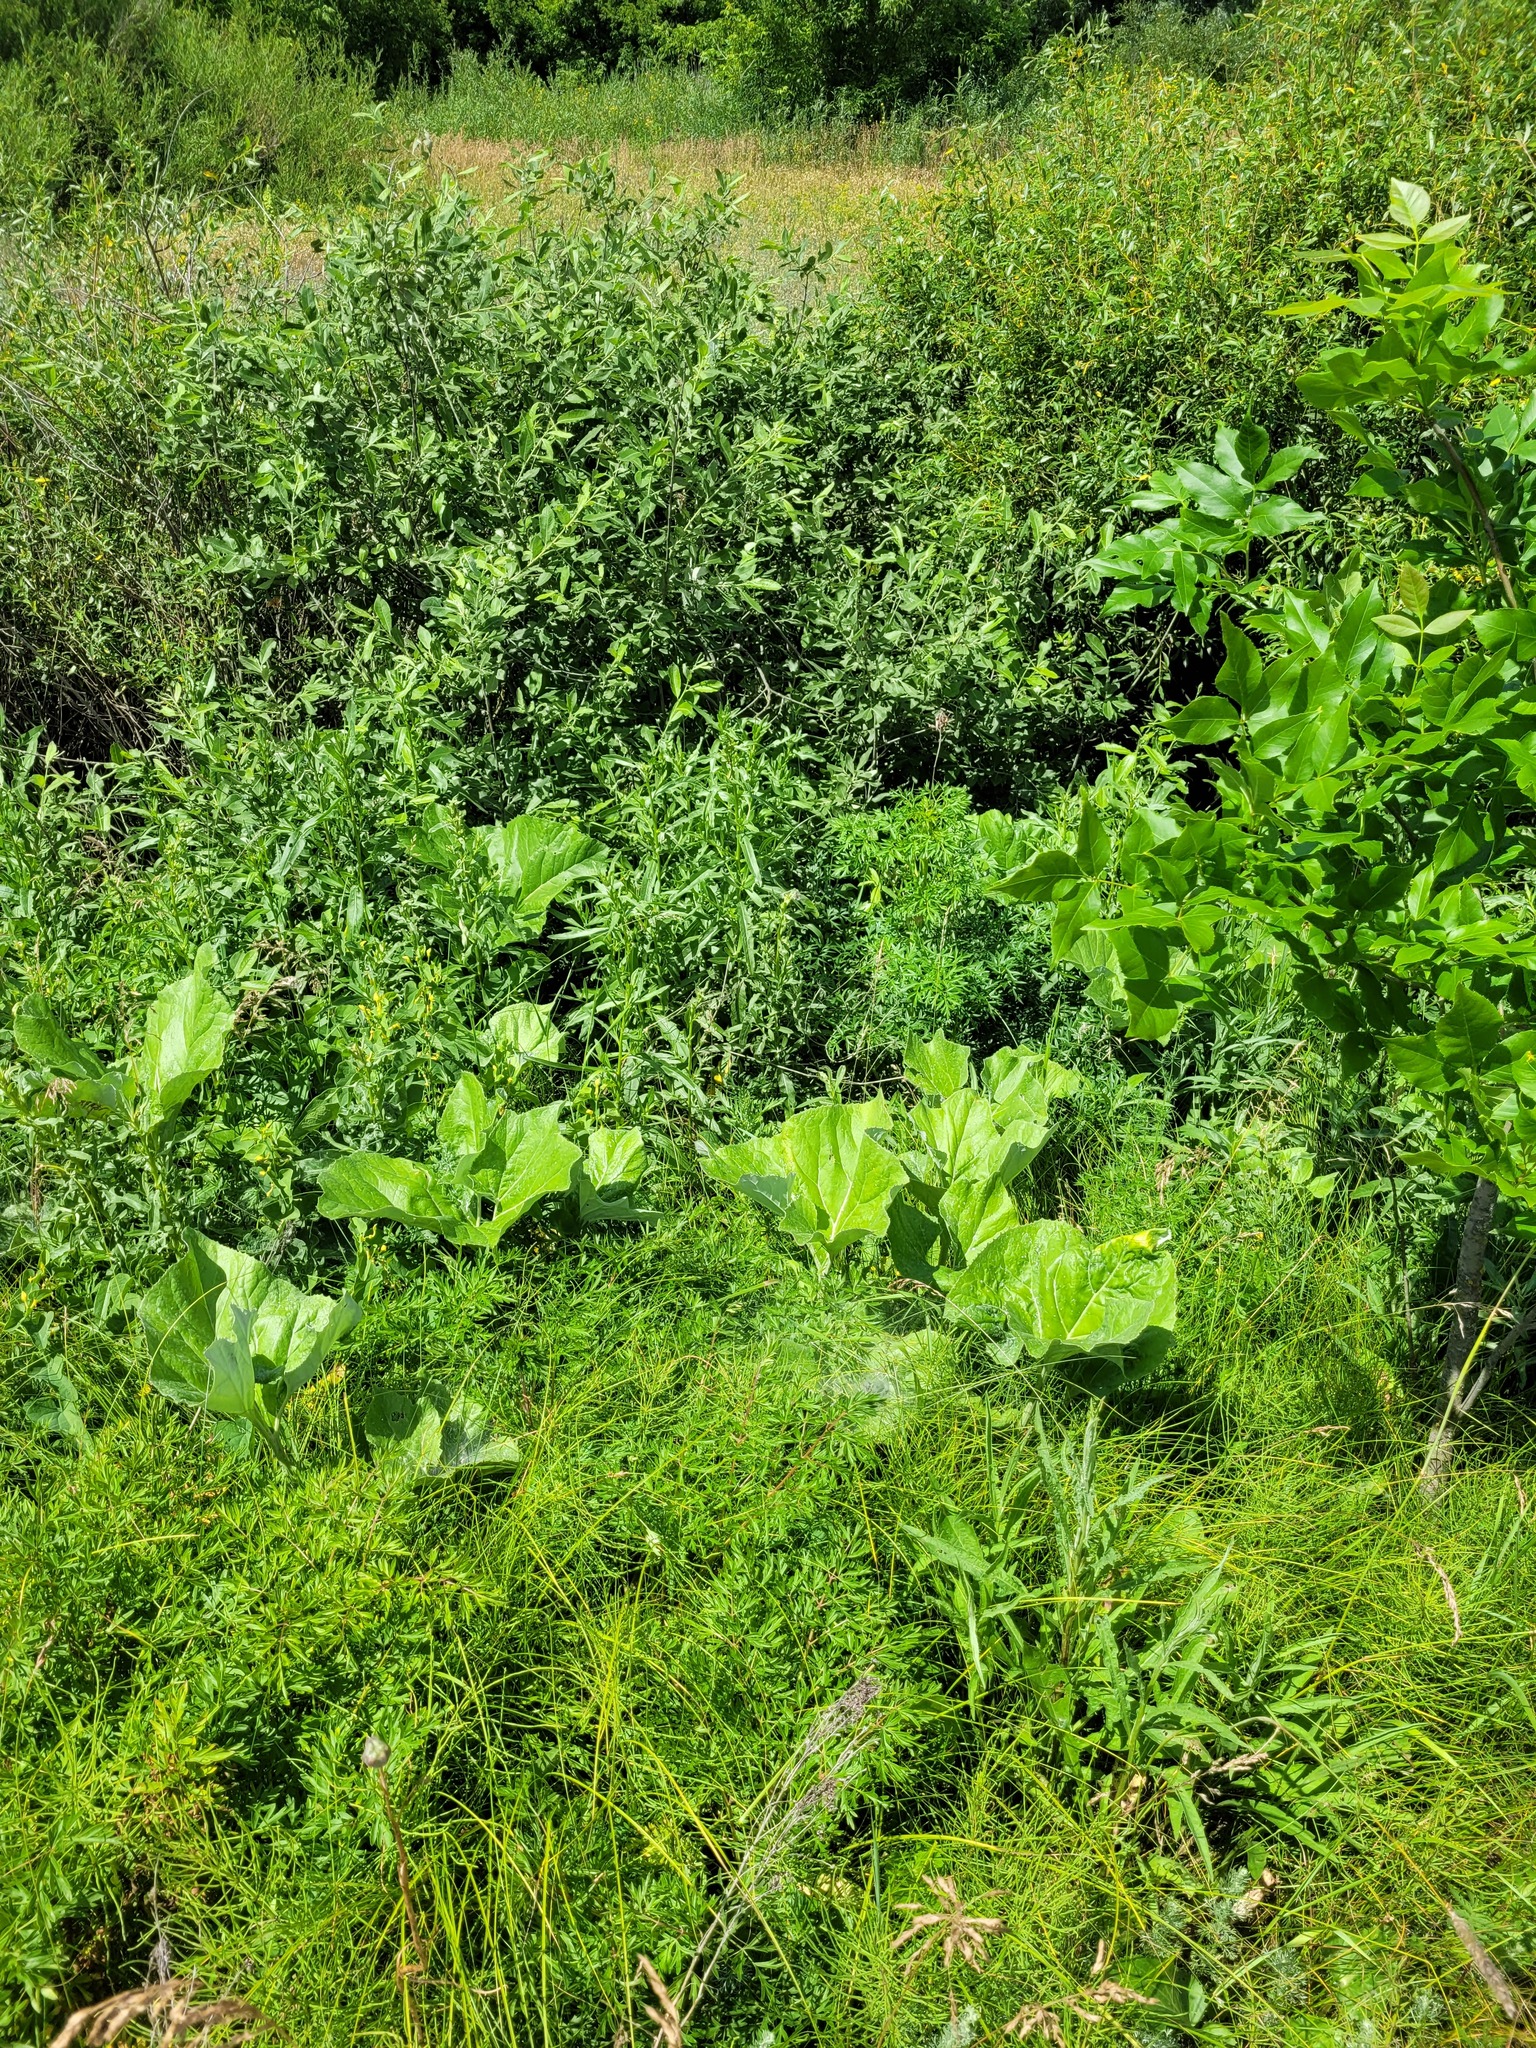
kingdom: Plantae
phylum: Tracheophyta
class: Magnoliopsida
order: Asterales
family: Asteraceae
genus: Petasites
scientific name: Petasites spurius
